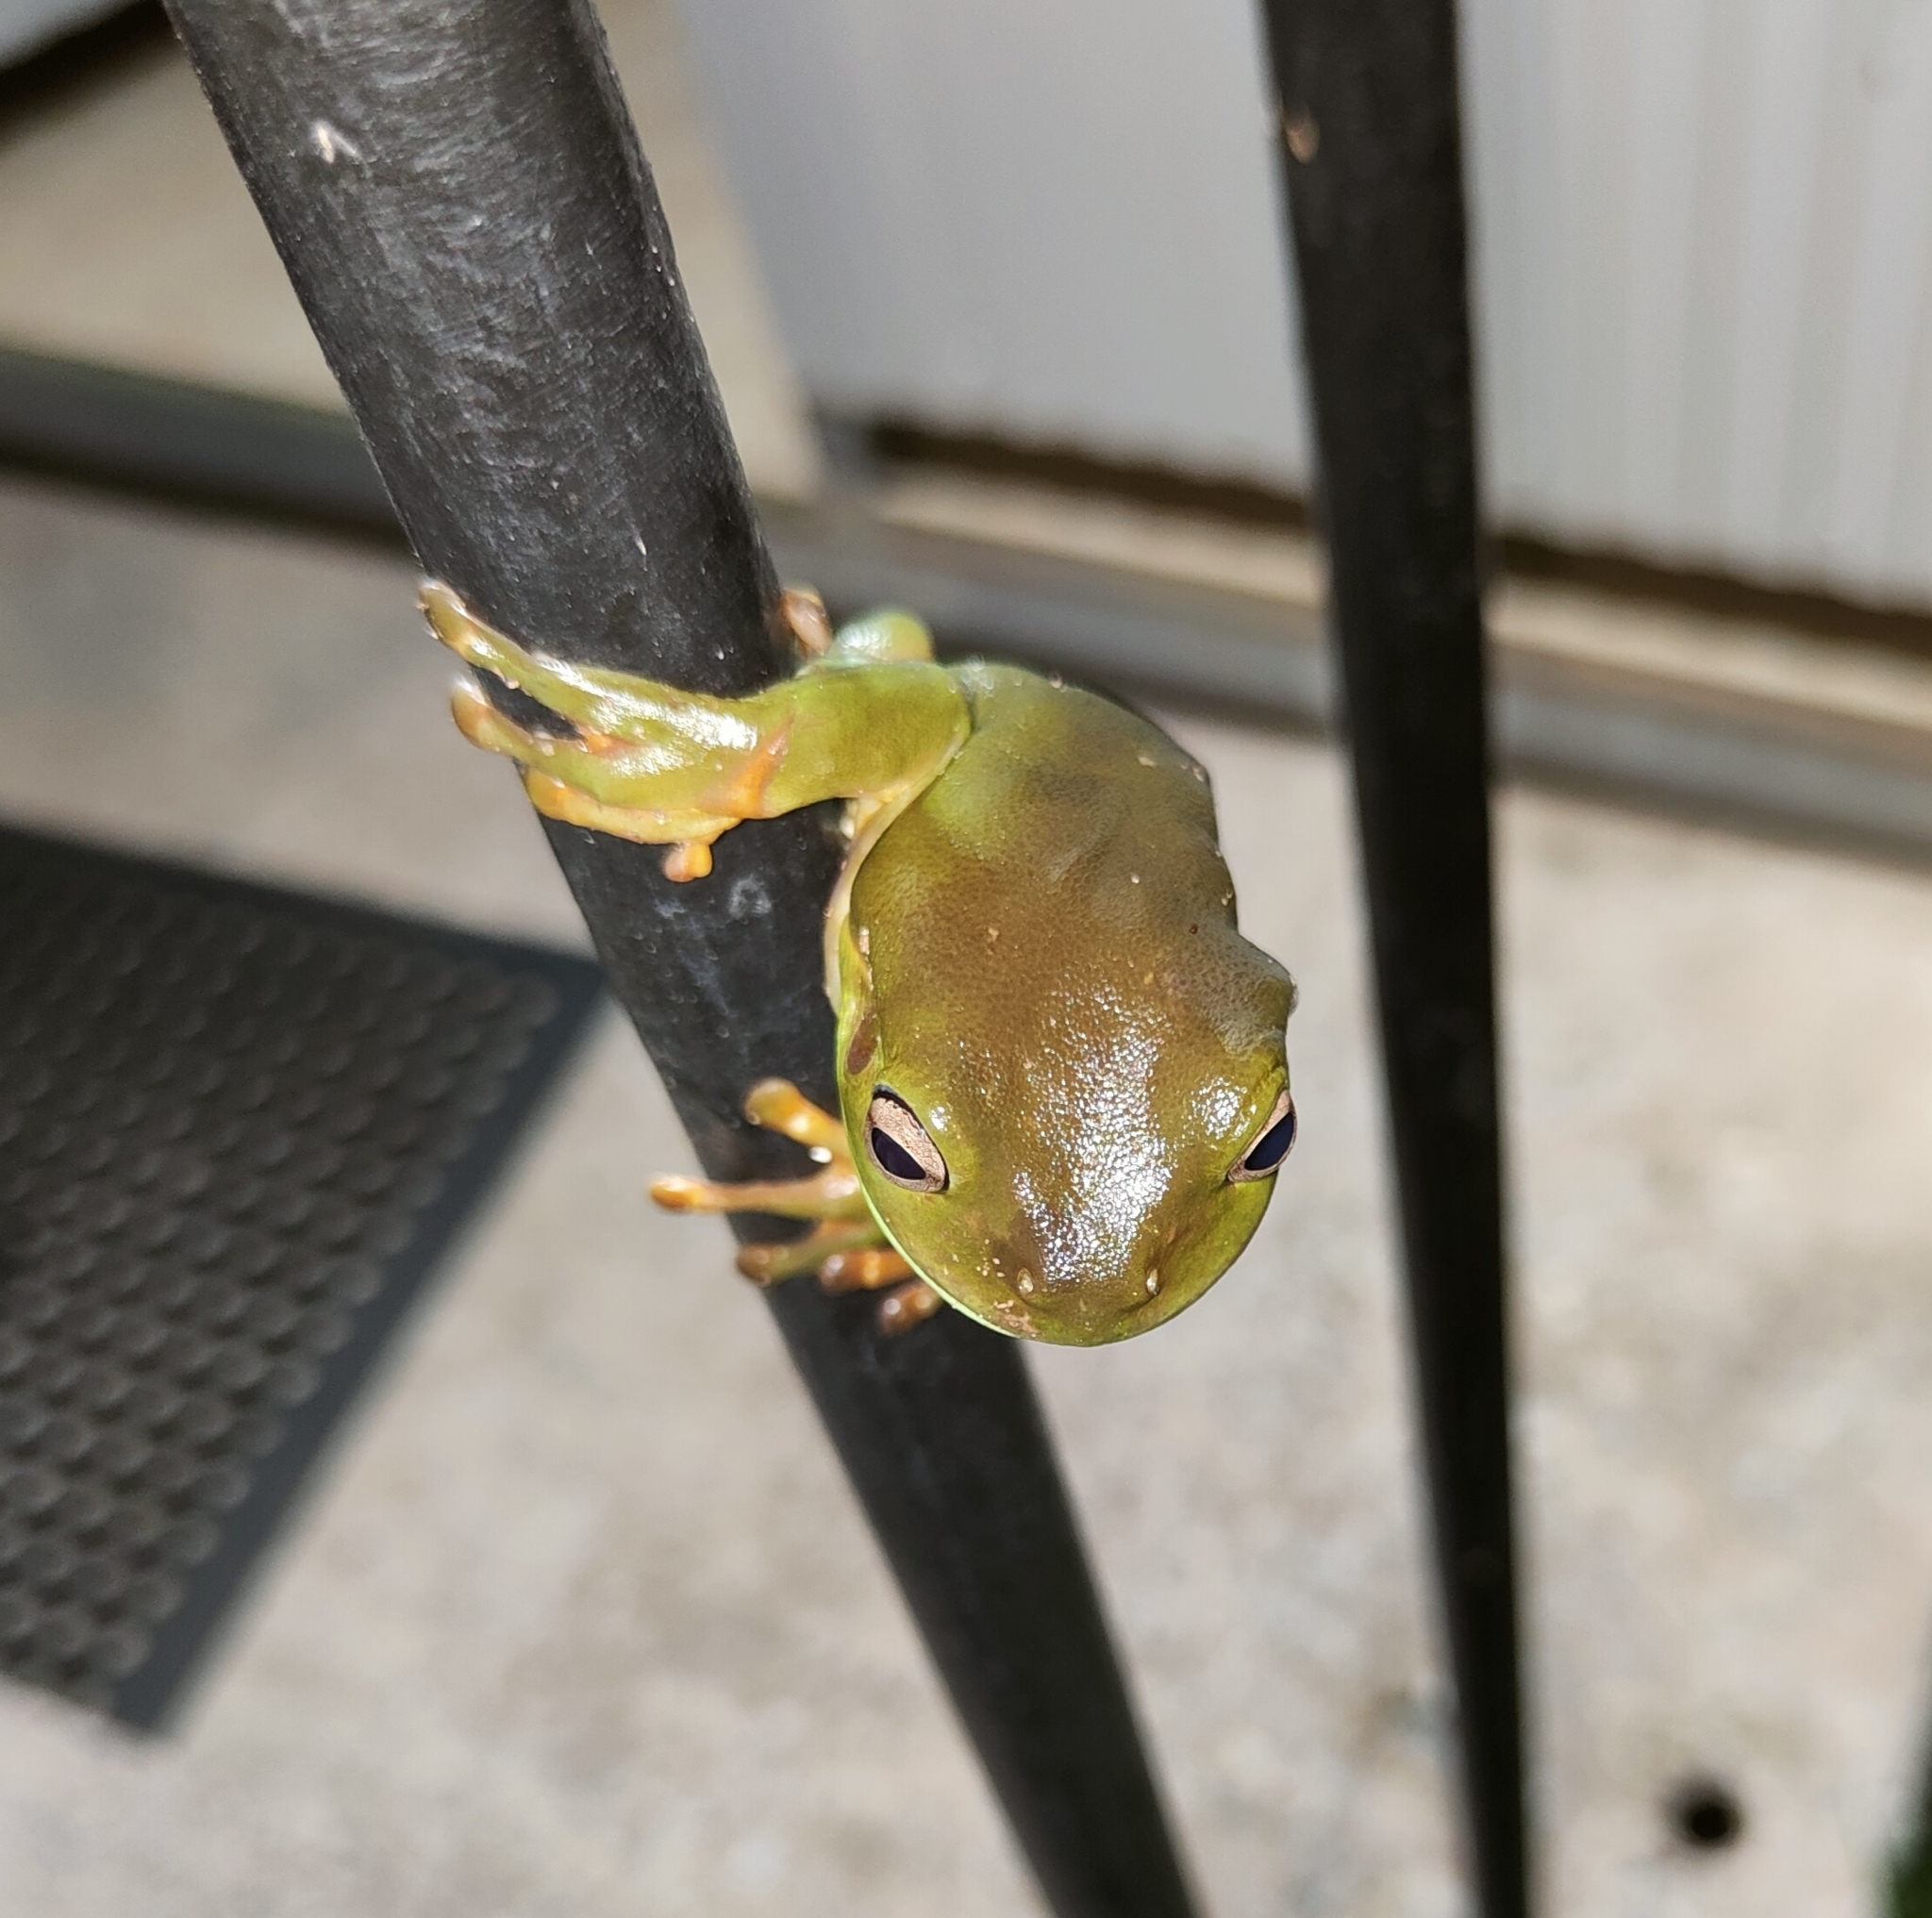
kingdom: Animalia
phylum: Chordata
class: Amphibia
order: Anura
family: Pelodryadidae
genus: Ranoidea
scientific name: Ranoidea caerulea
